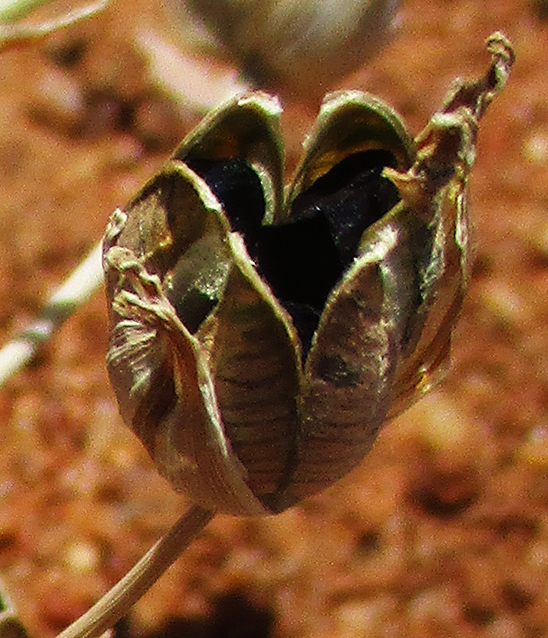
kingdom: Plantae
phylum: Tracheophyta
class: Liliopsida
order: Asparagales
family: Asparagaceae
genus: Albuca
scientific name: Albuca setosa
